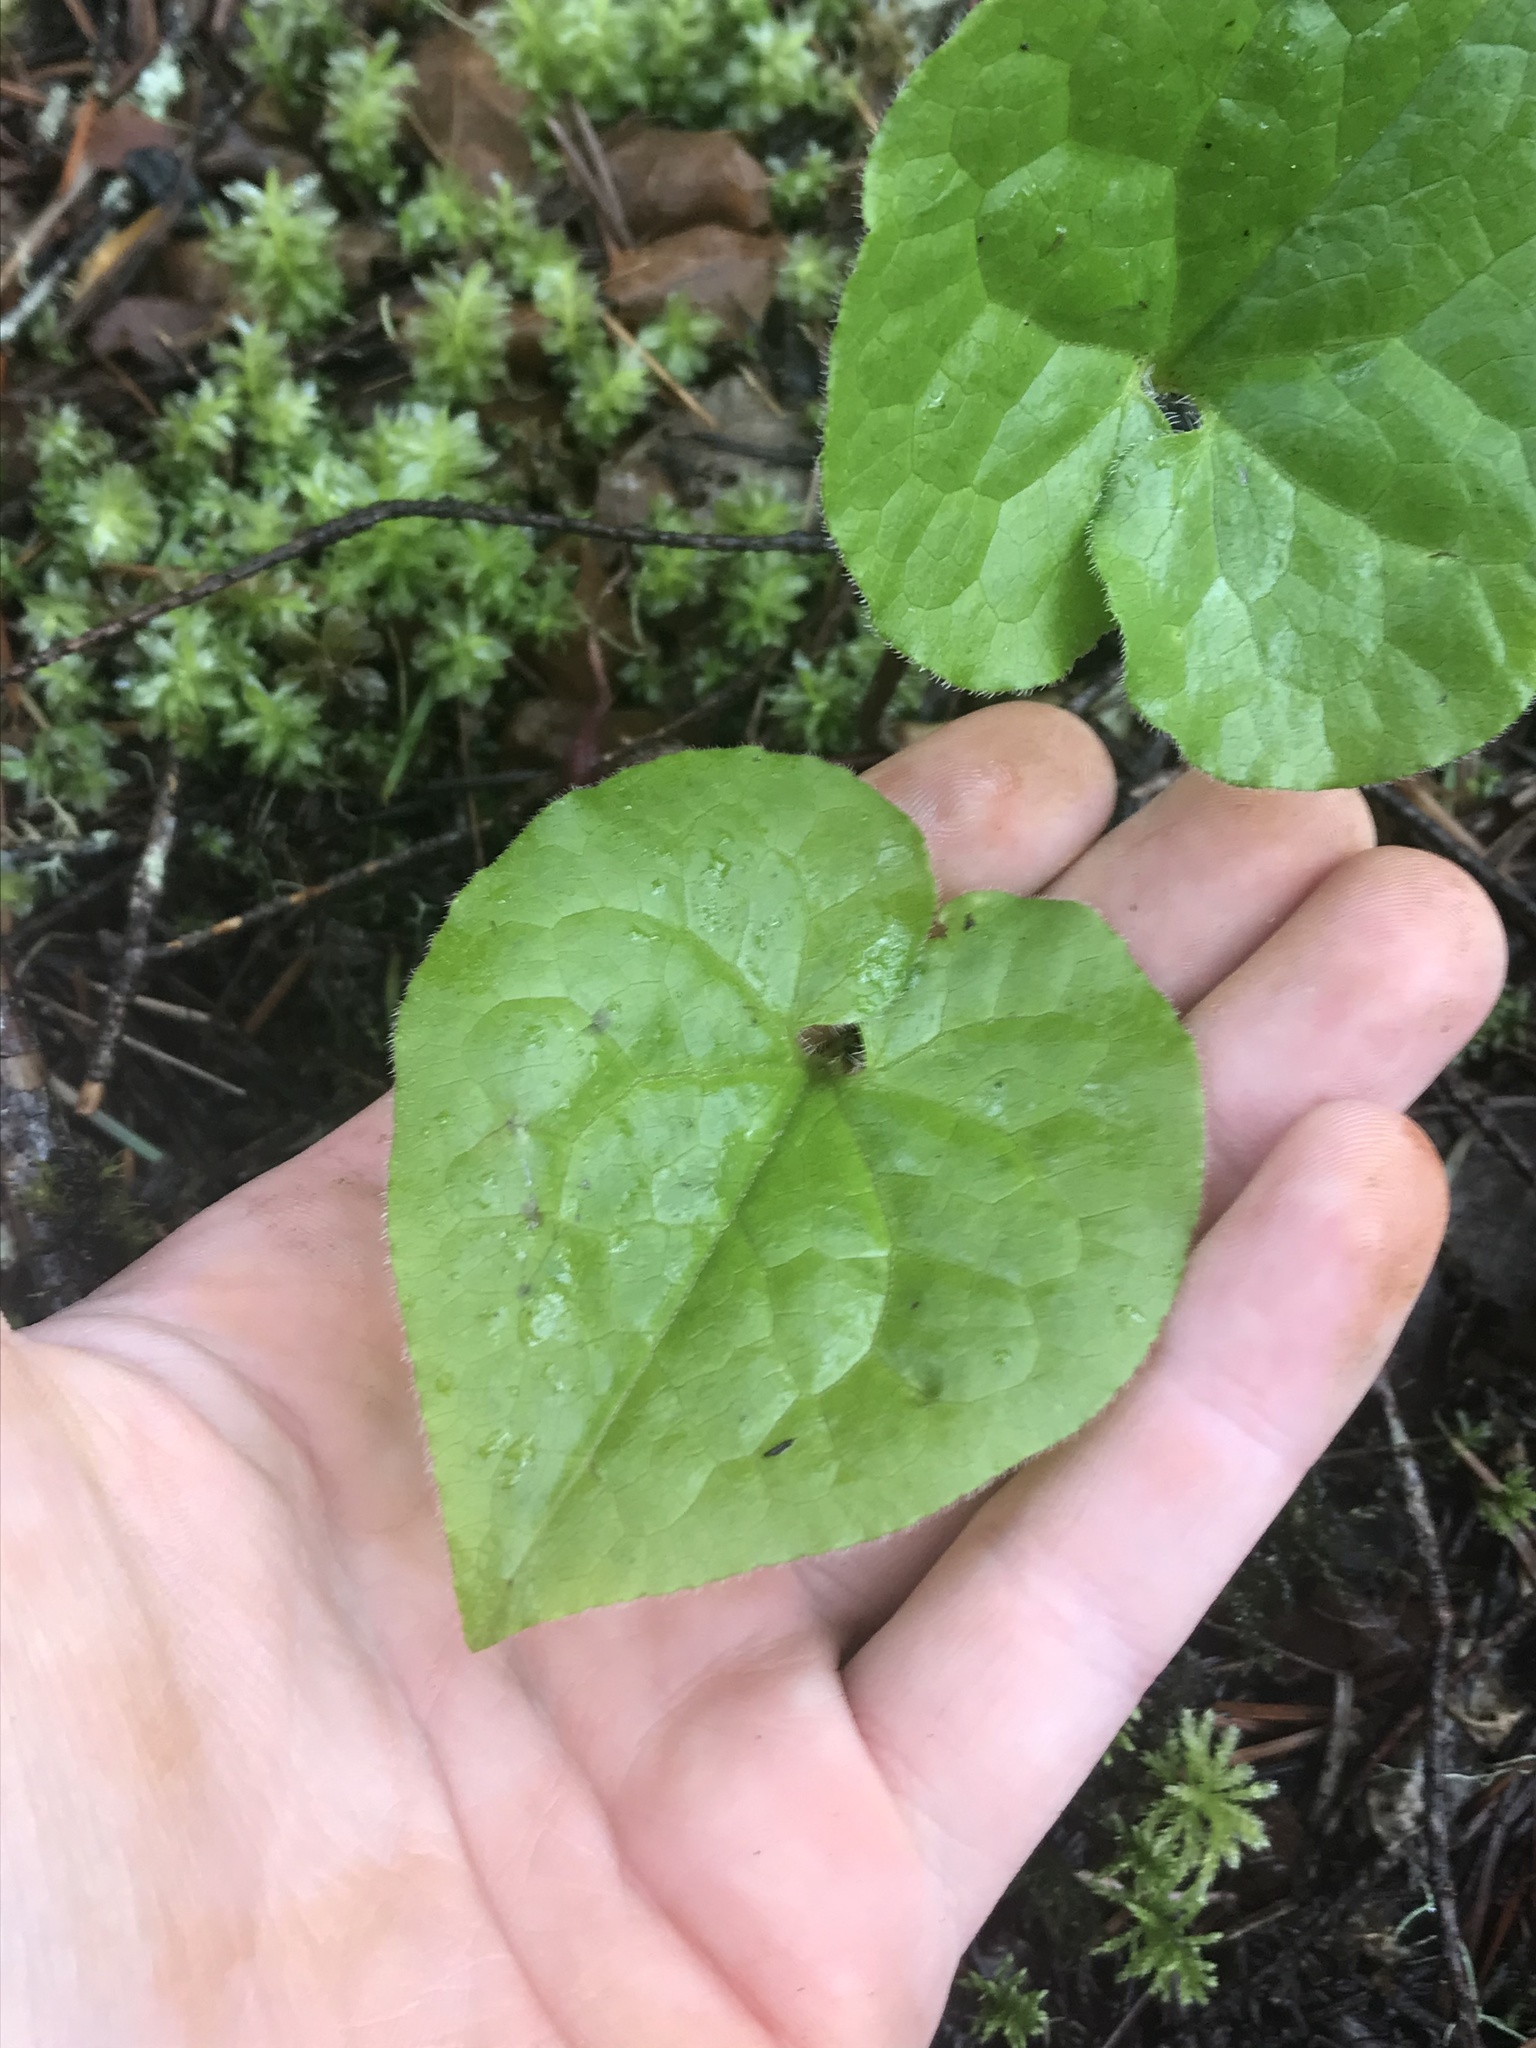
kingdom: Plantae
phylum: Tracheophyta
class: Magnoliopsida
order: Piperales
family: Aristolochiaceae
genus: Asarum
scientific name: Asarum caudatum
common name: Wild ginger
